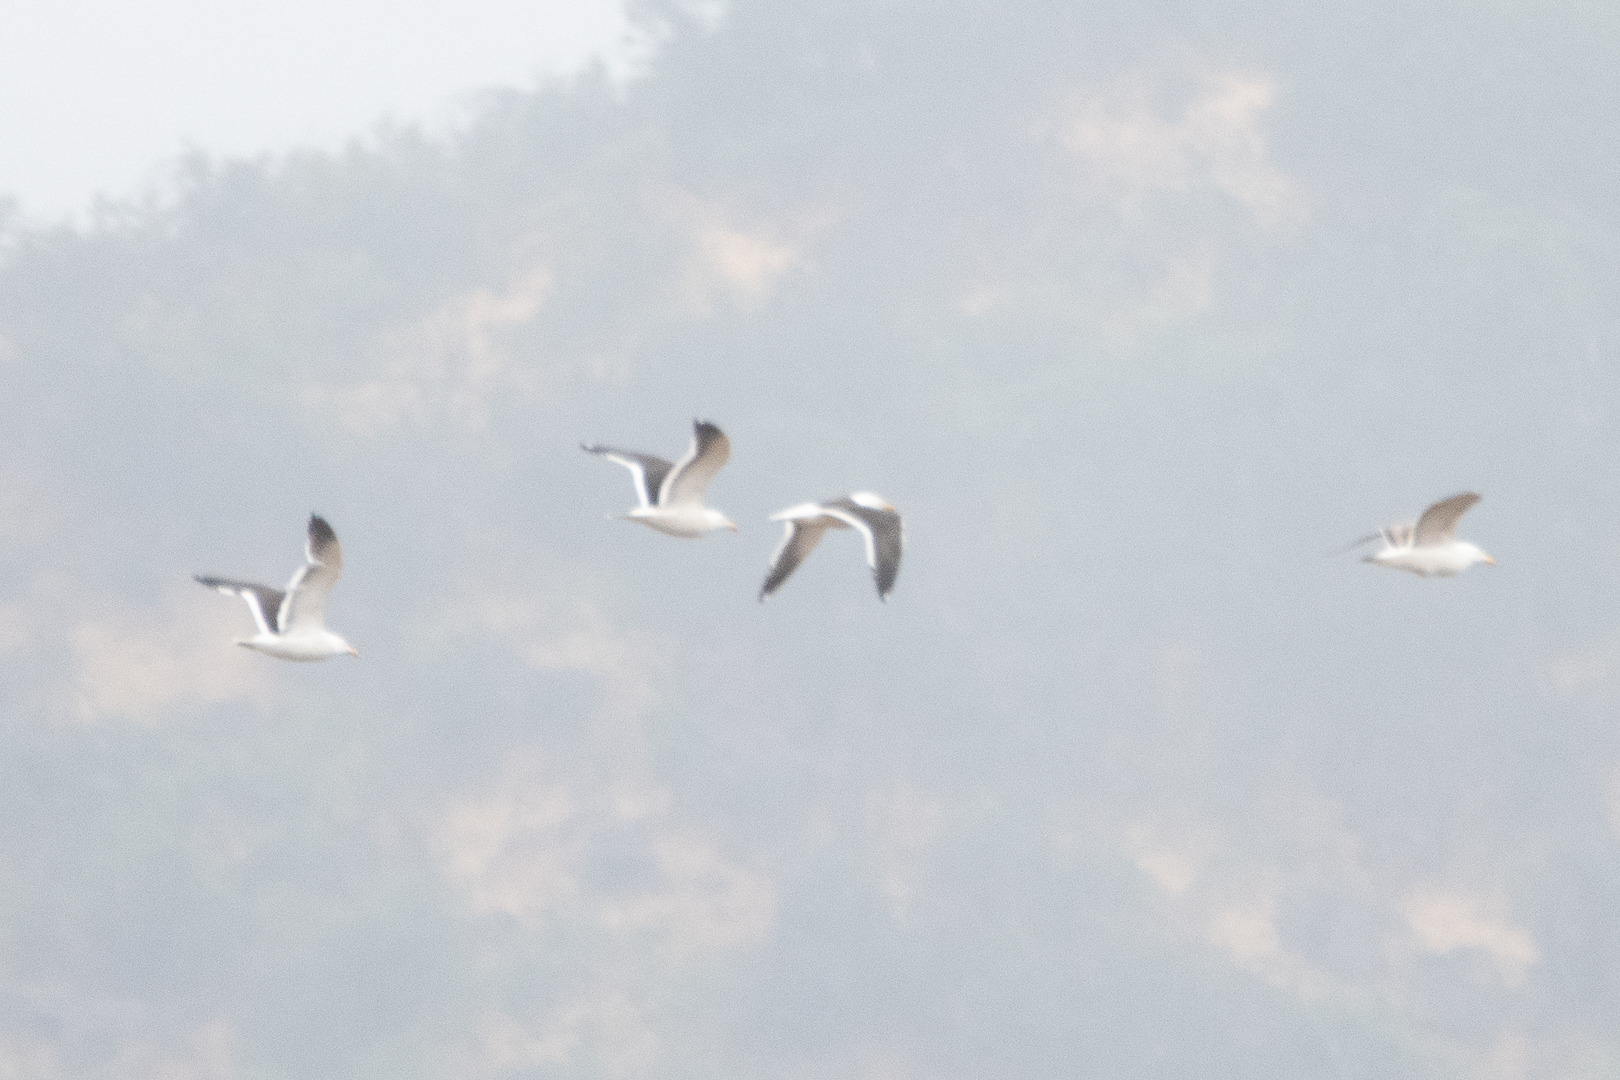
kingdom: Animalia
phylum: Chordata
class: Aves
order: Charadriiformes
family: Laridae
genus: Larus
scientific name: Larus dominicanus
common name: Kelp gull
